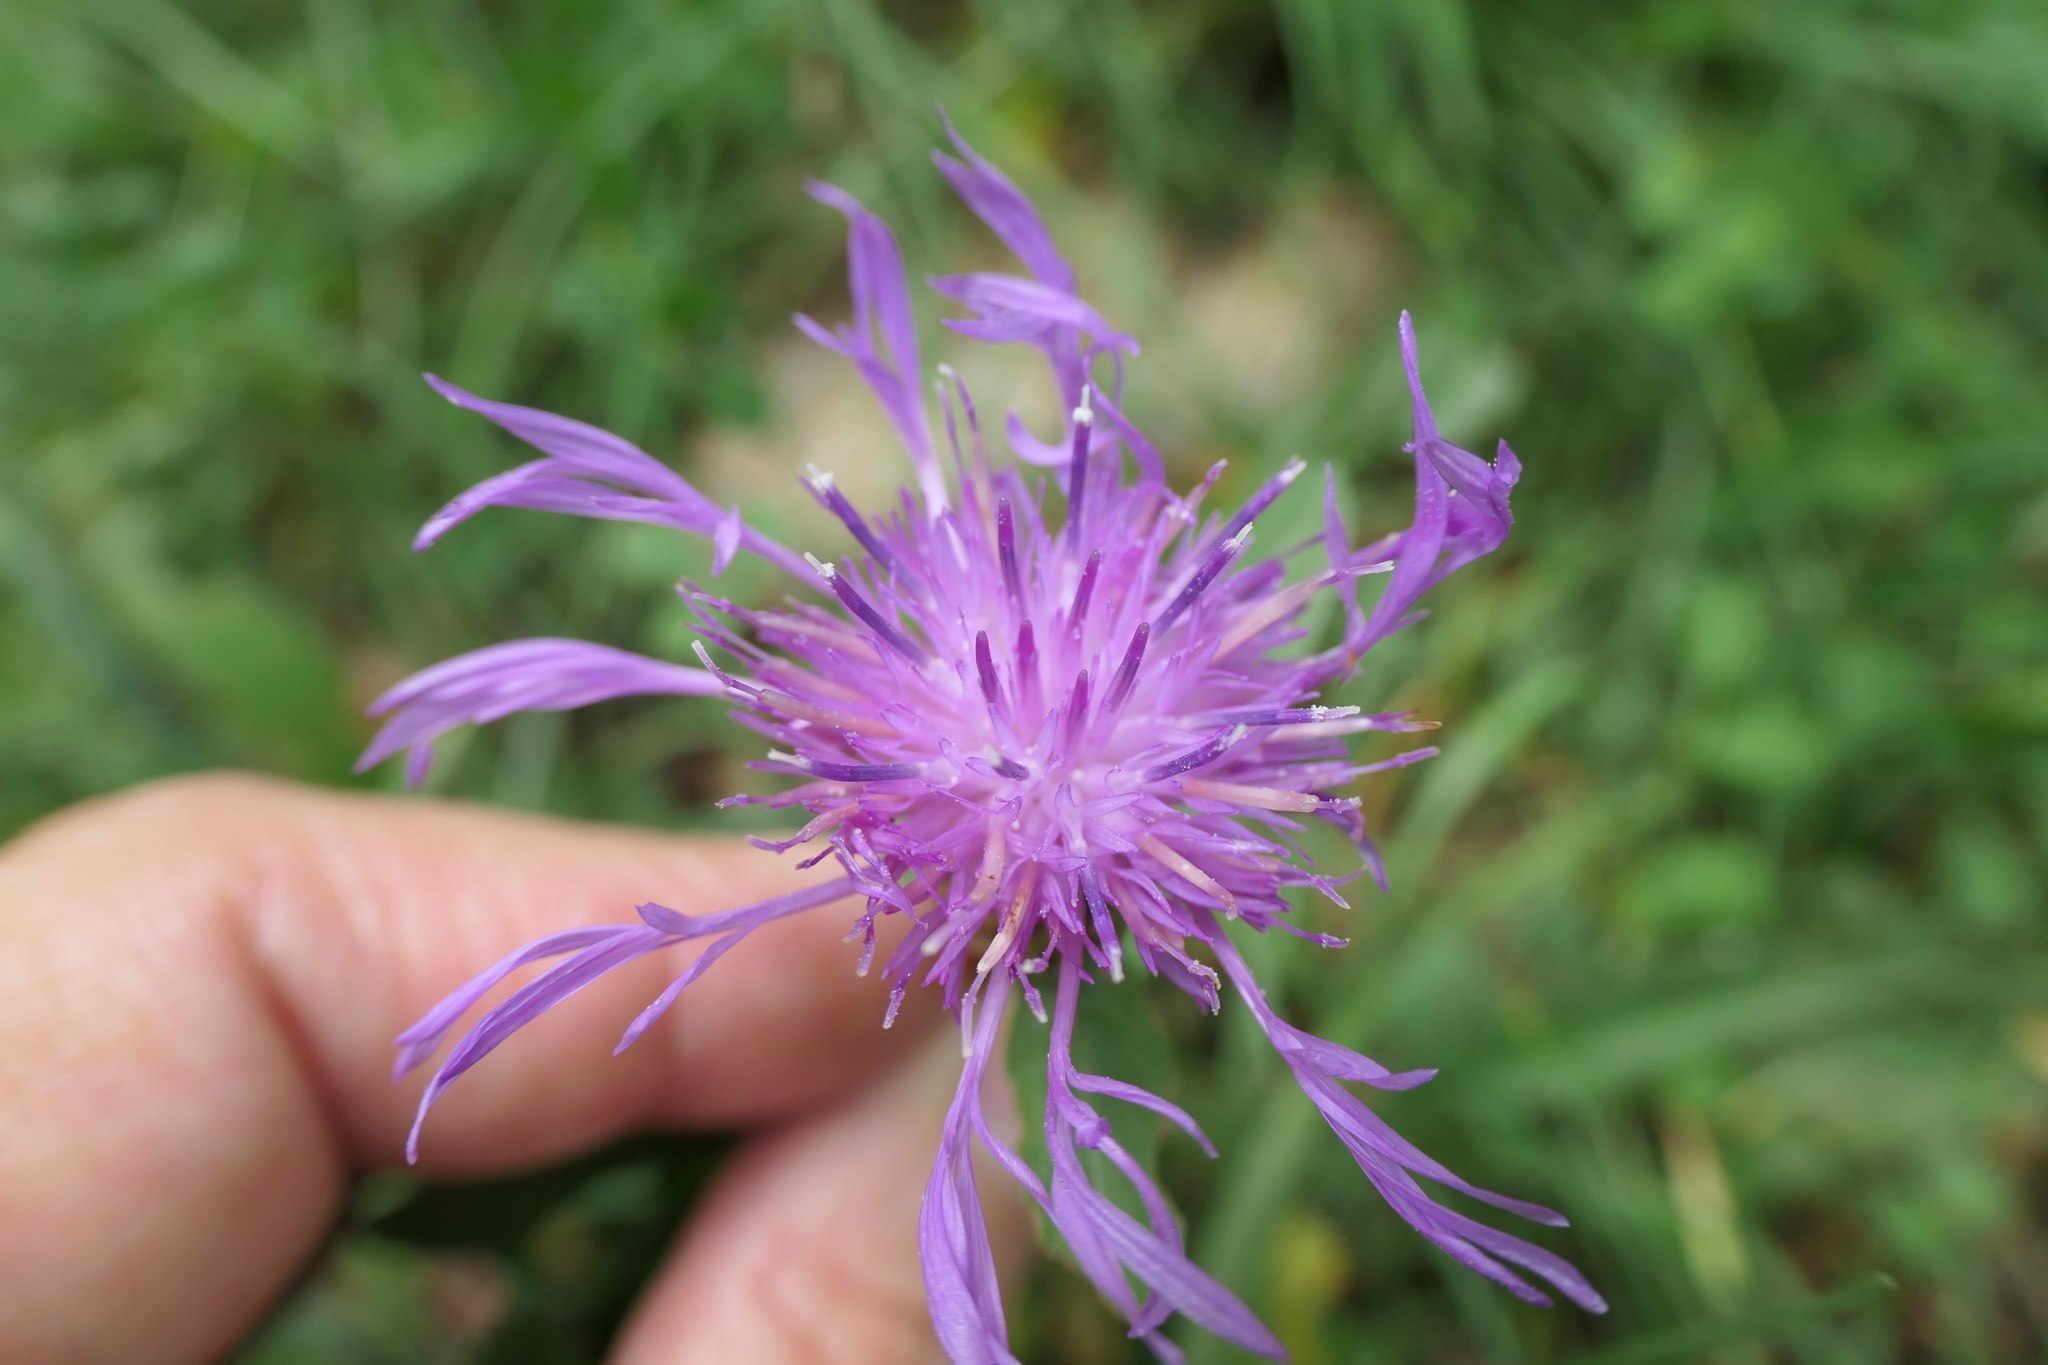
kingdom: Plantae
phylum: Tracheophyta
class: Magnoliopsida
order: Asterales
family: Asteraceae
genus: Centaurea
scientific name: Centaurea jacea
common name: Brown knapweed
